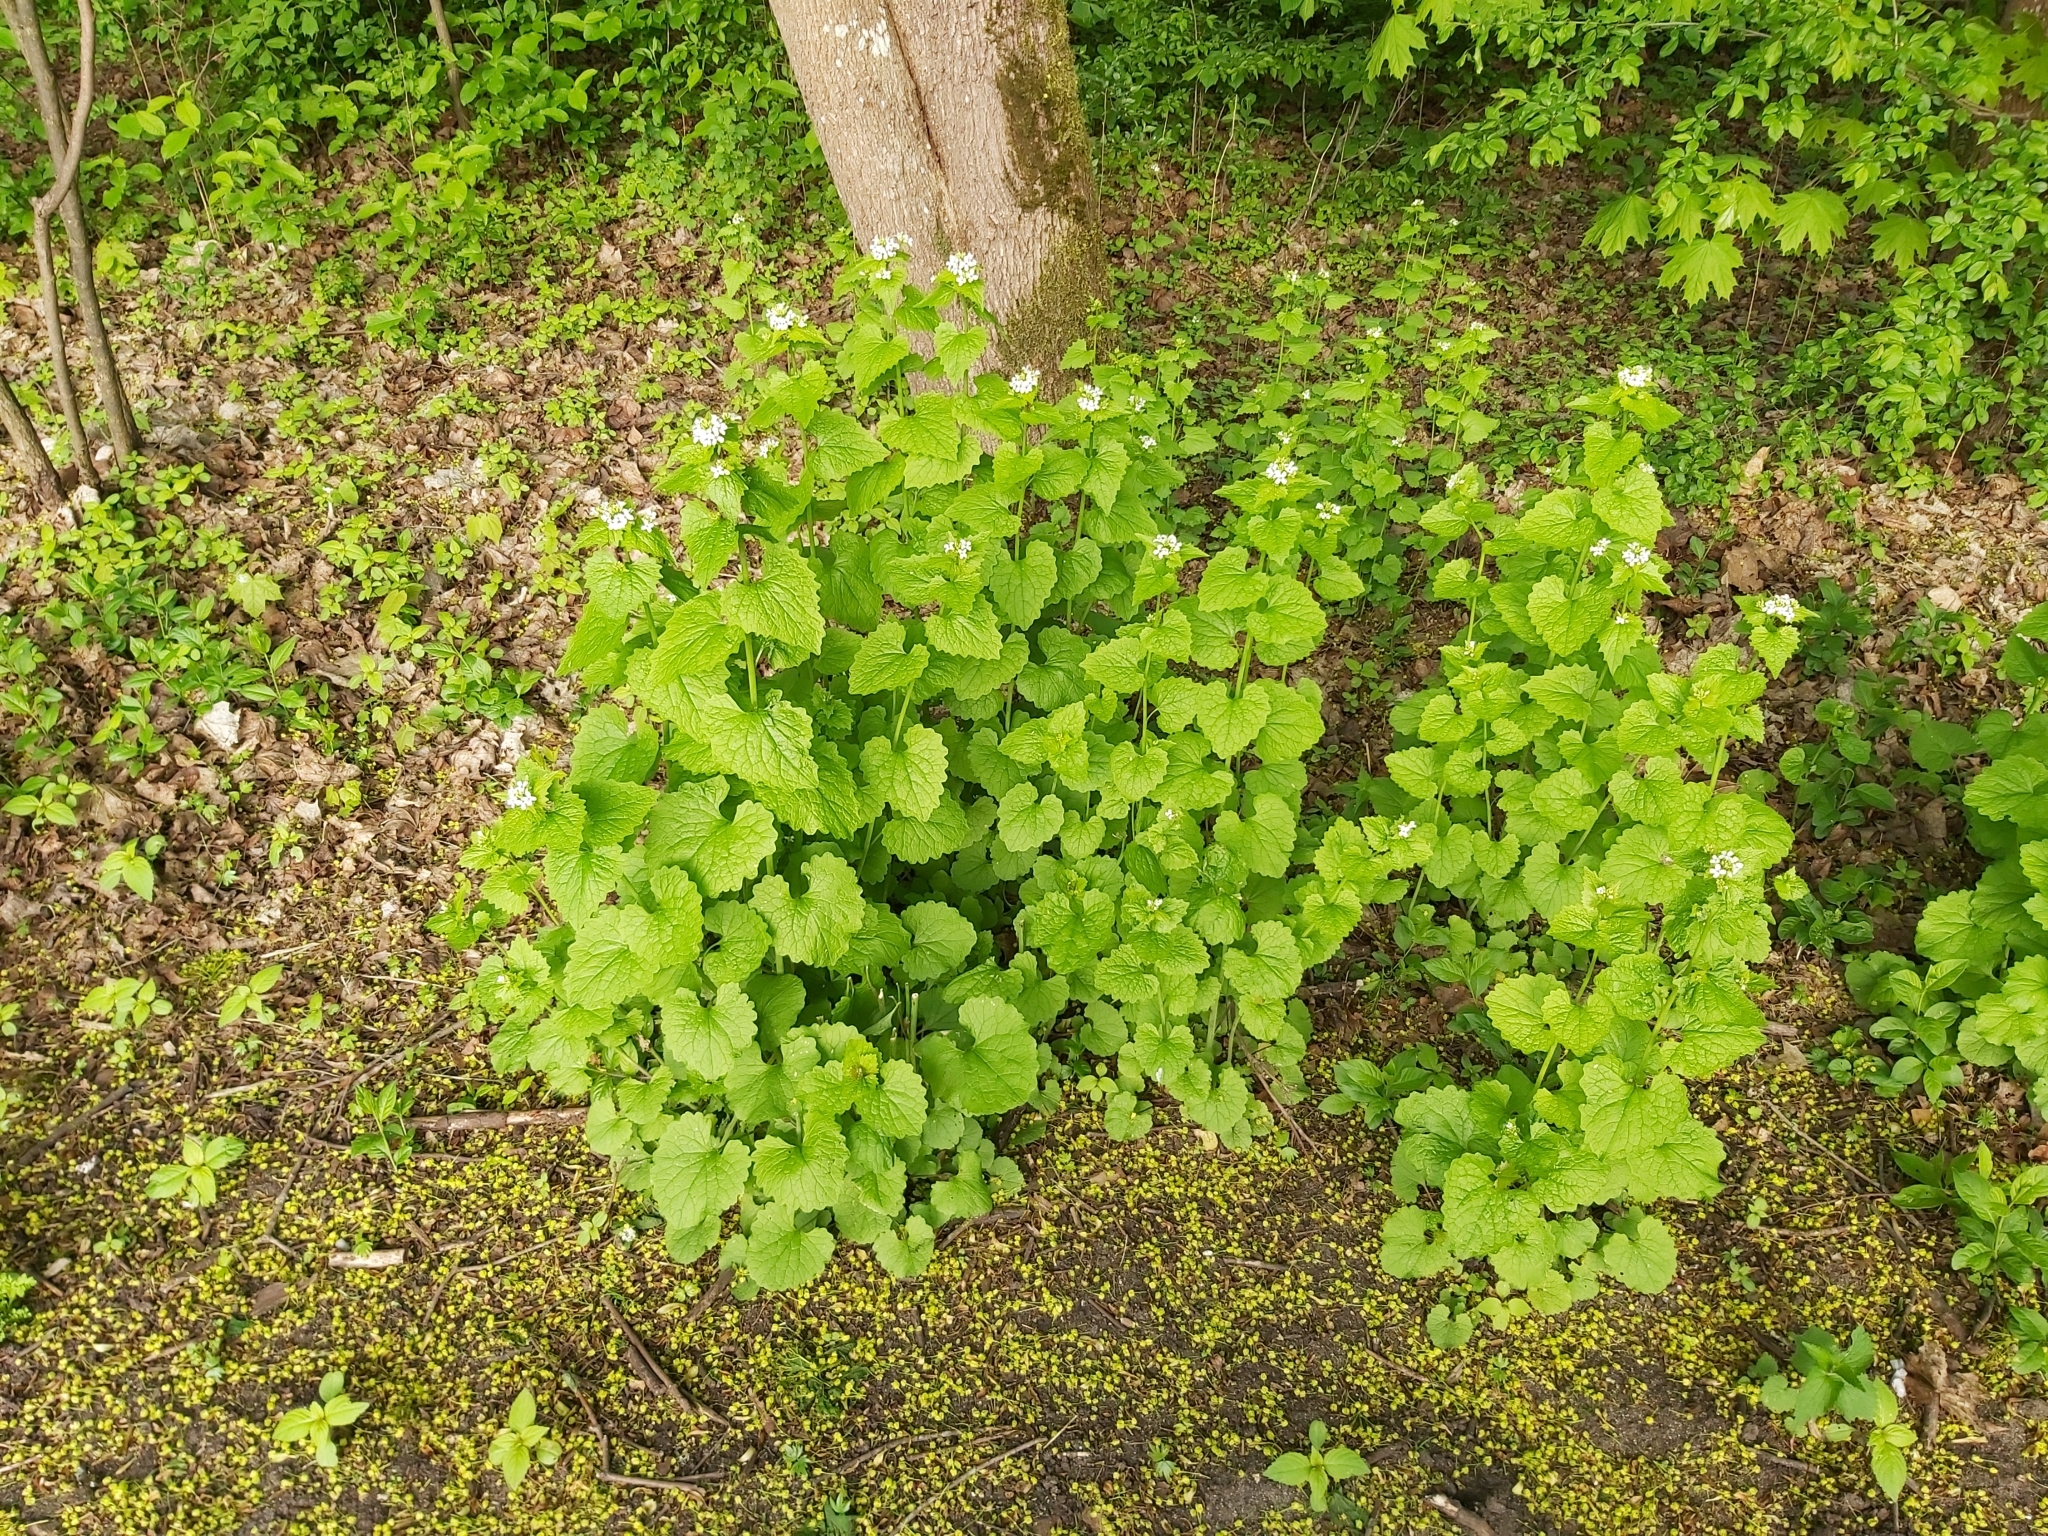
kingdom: Plantae
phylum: Tracheophyta
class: Magnoliopsida
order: Brassicales
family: Brassicaceae
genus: Alliaria
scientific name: Alliaria petiolata
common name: Garlic mustard
